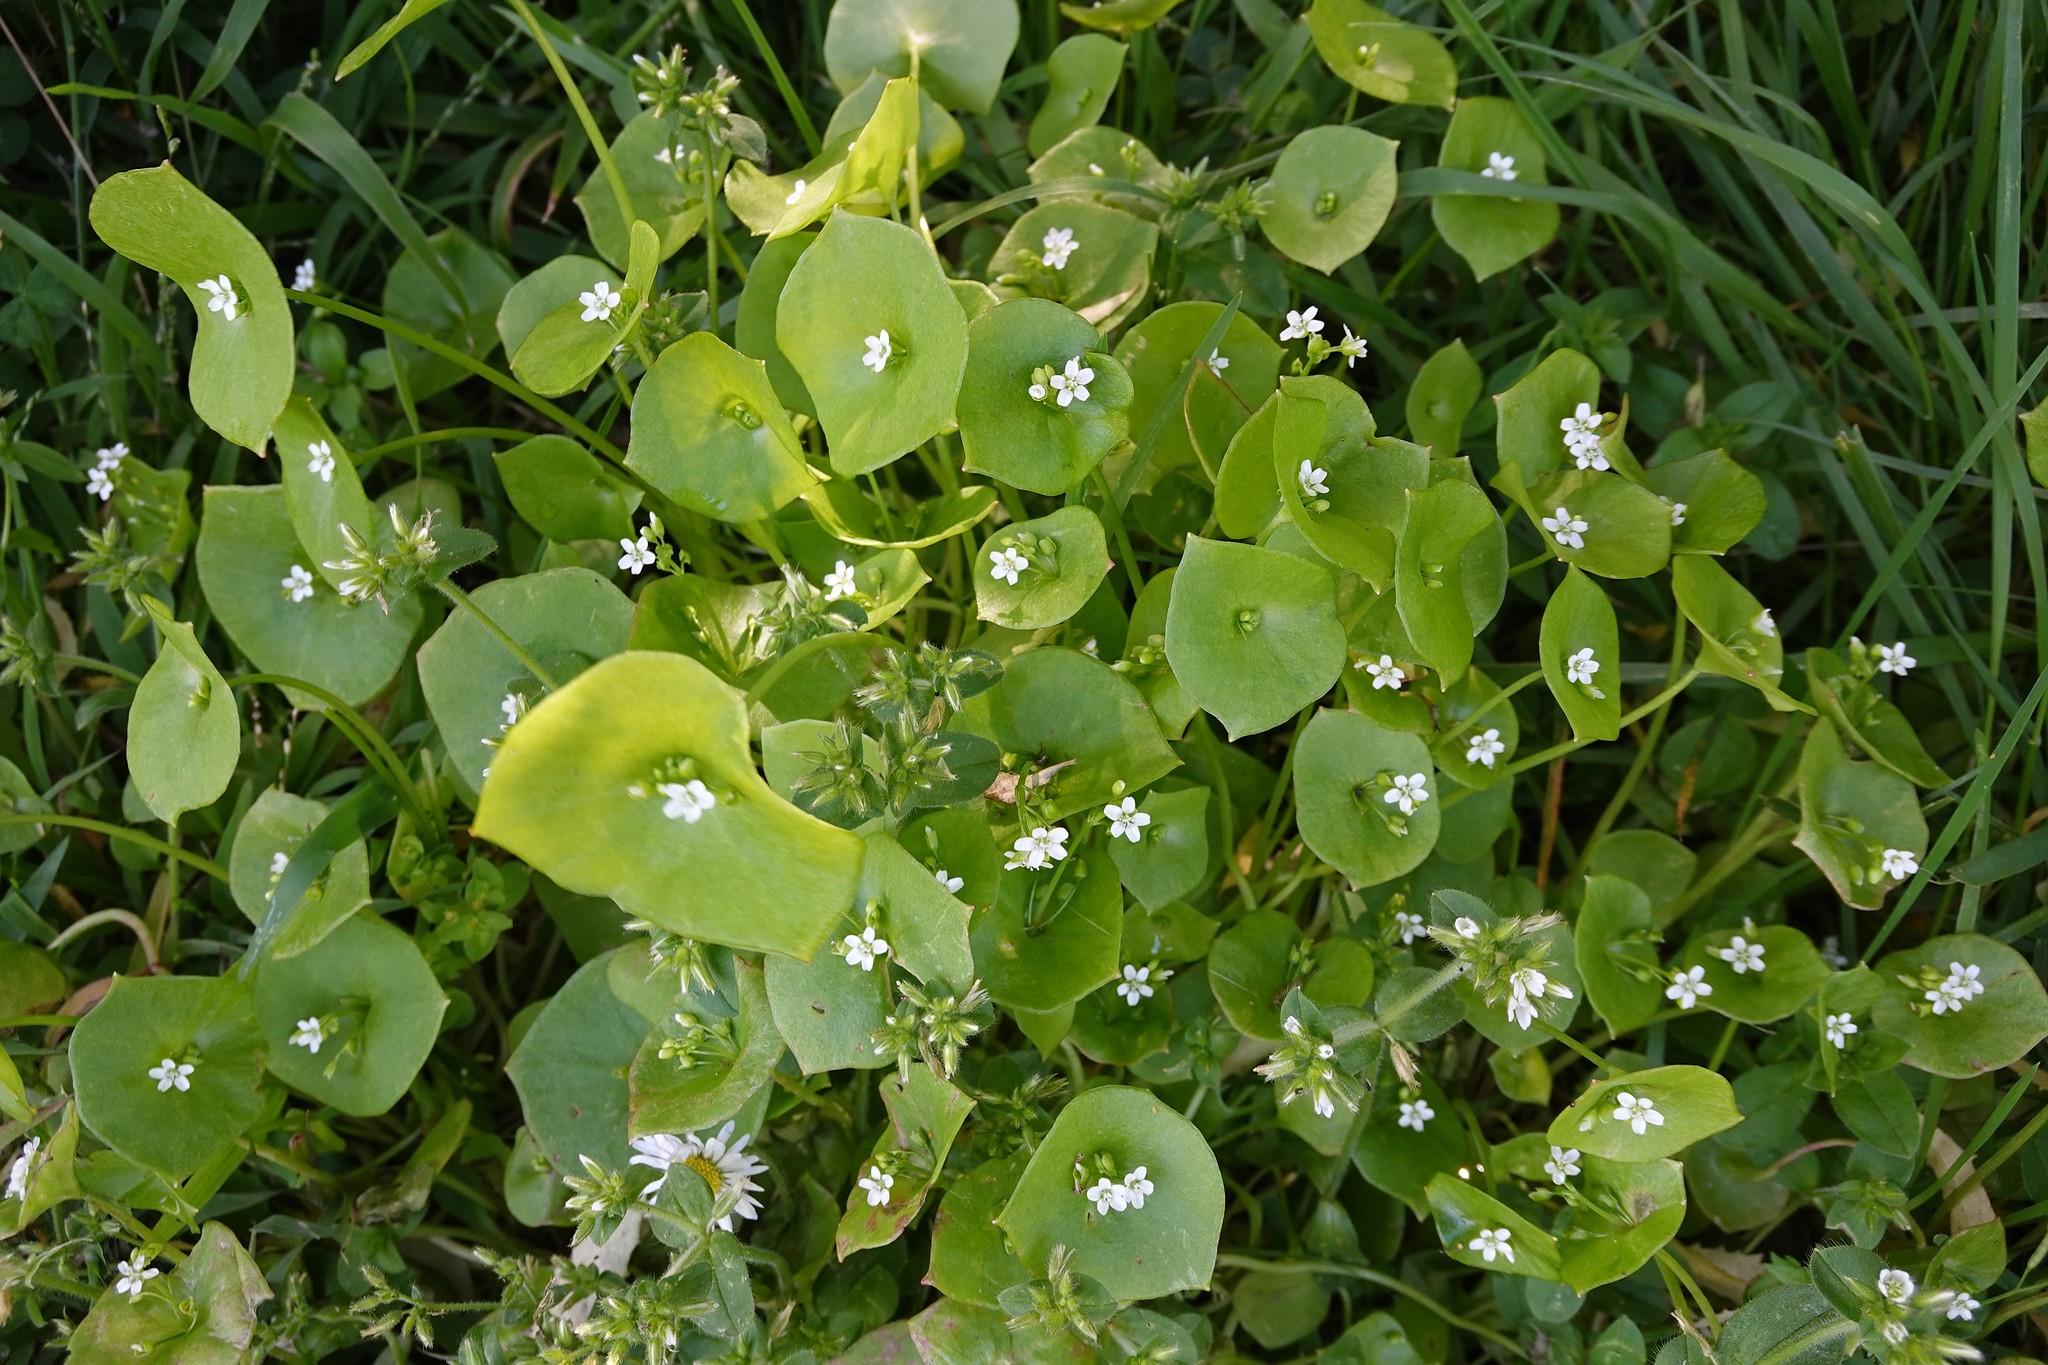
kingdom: Plantae
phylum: Tracheophyta
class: Magnoliopsida
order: Caryophyllales
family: Montiaceae
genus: Claytonia
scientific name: Claytonia perfoliata
